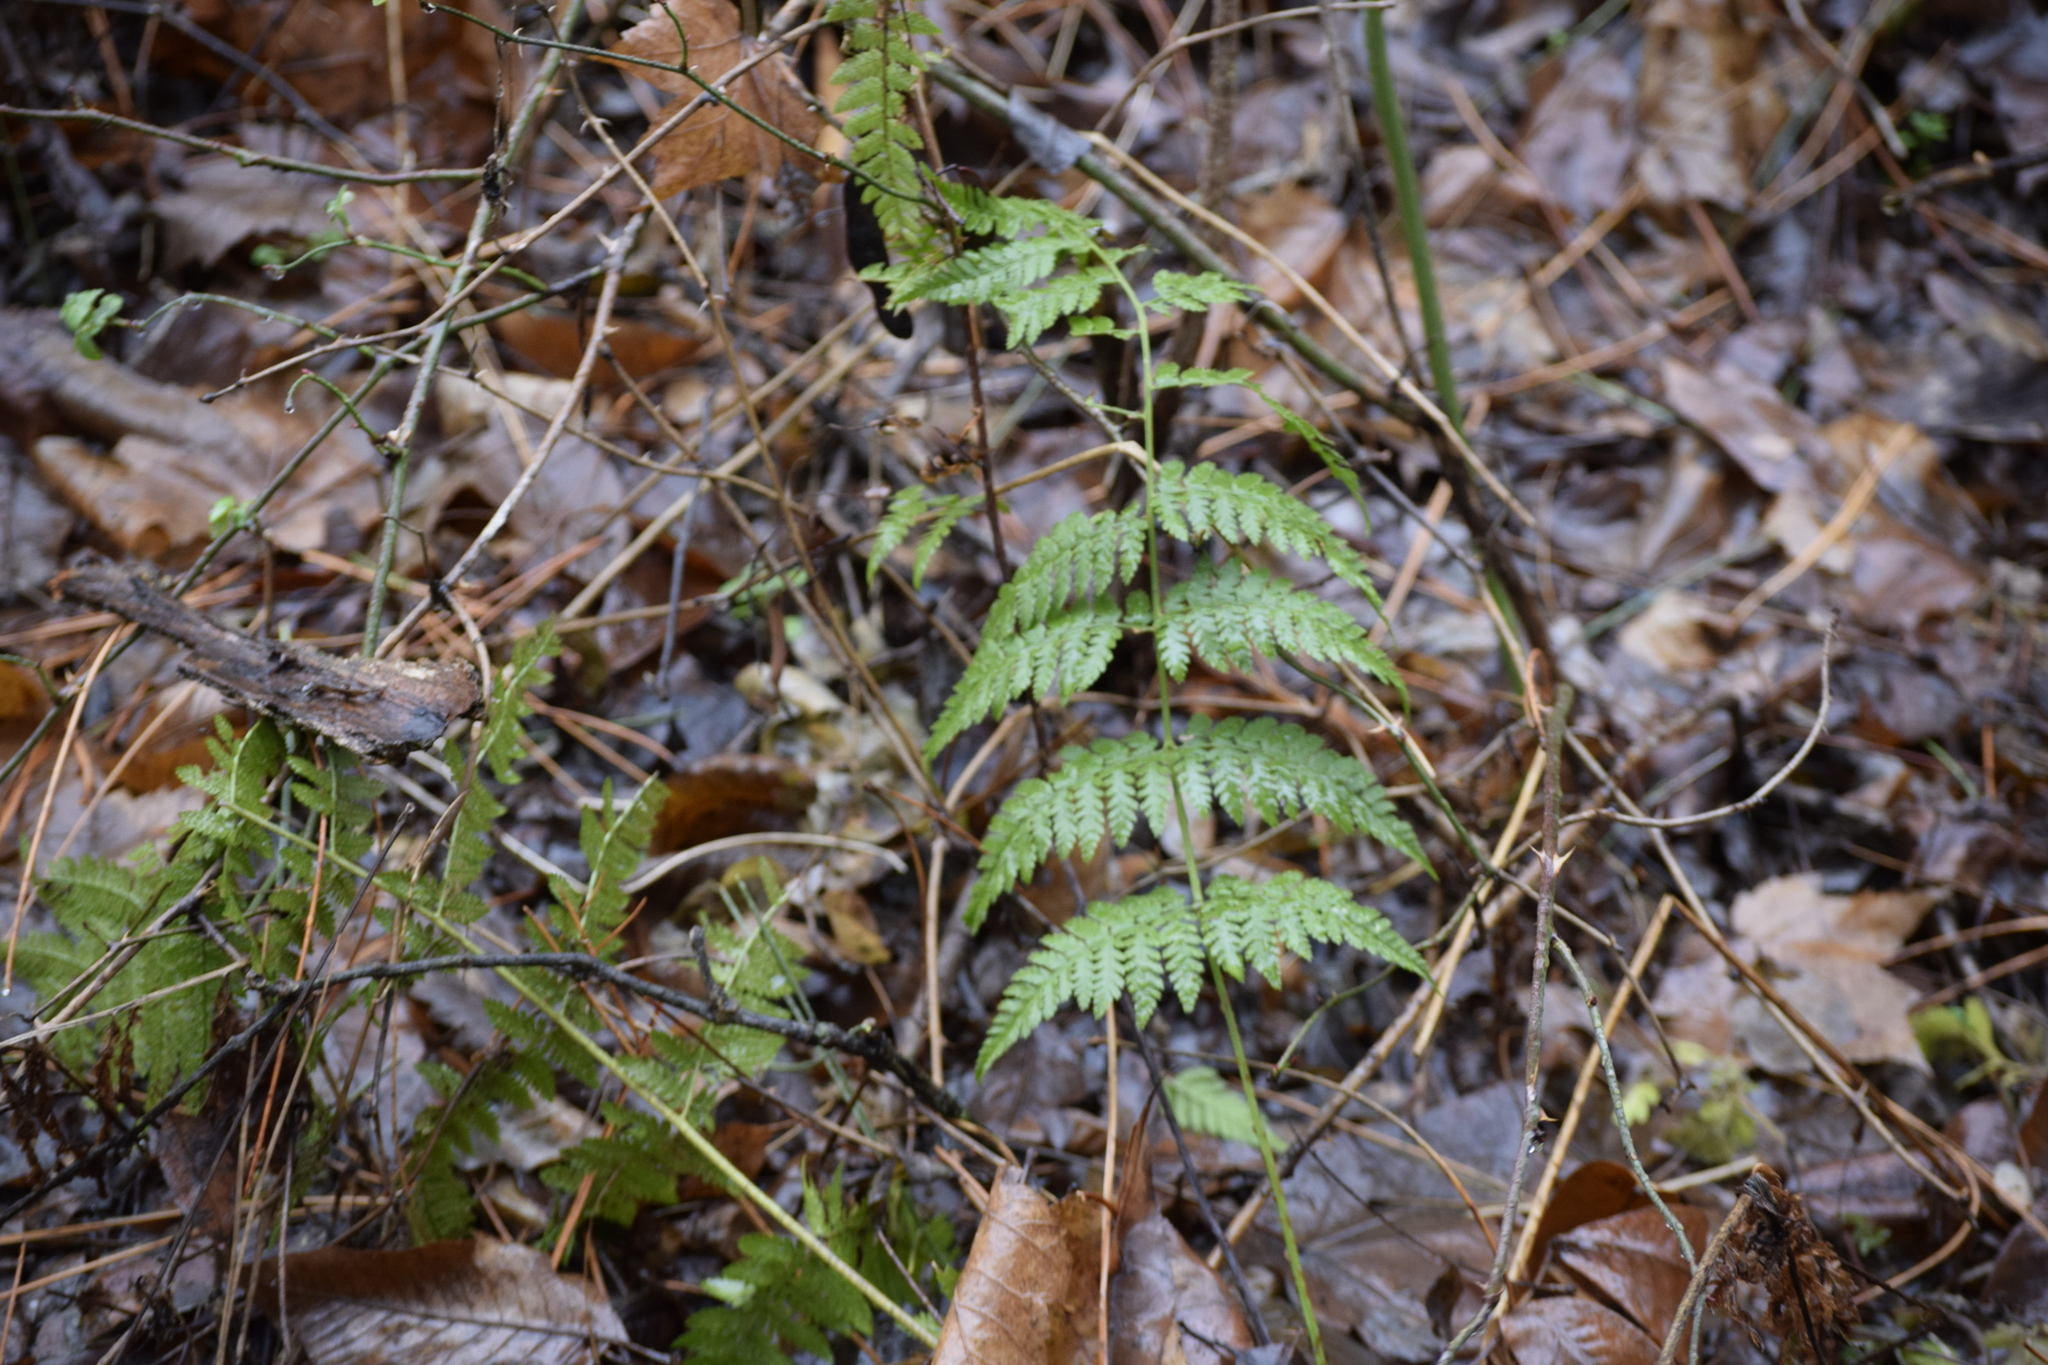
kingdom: Plantae
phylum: Tracheophyta
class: Polypodiopsida
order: Polypodiales
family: Dryopteridaceae
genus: Dryopteris
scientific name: Dryopteris intermedia
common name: Evergreen wood fern
